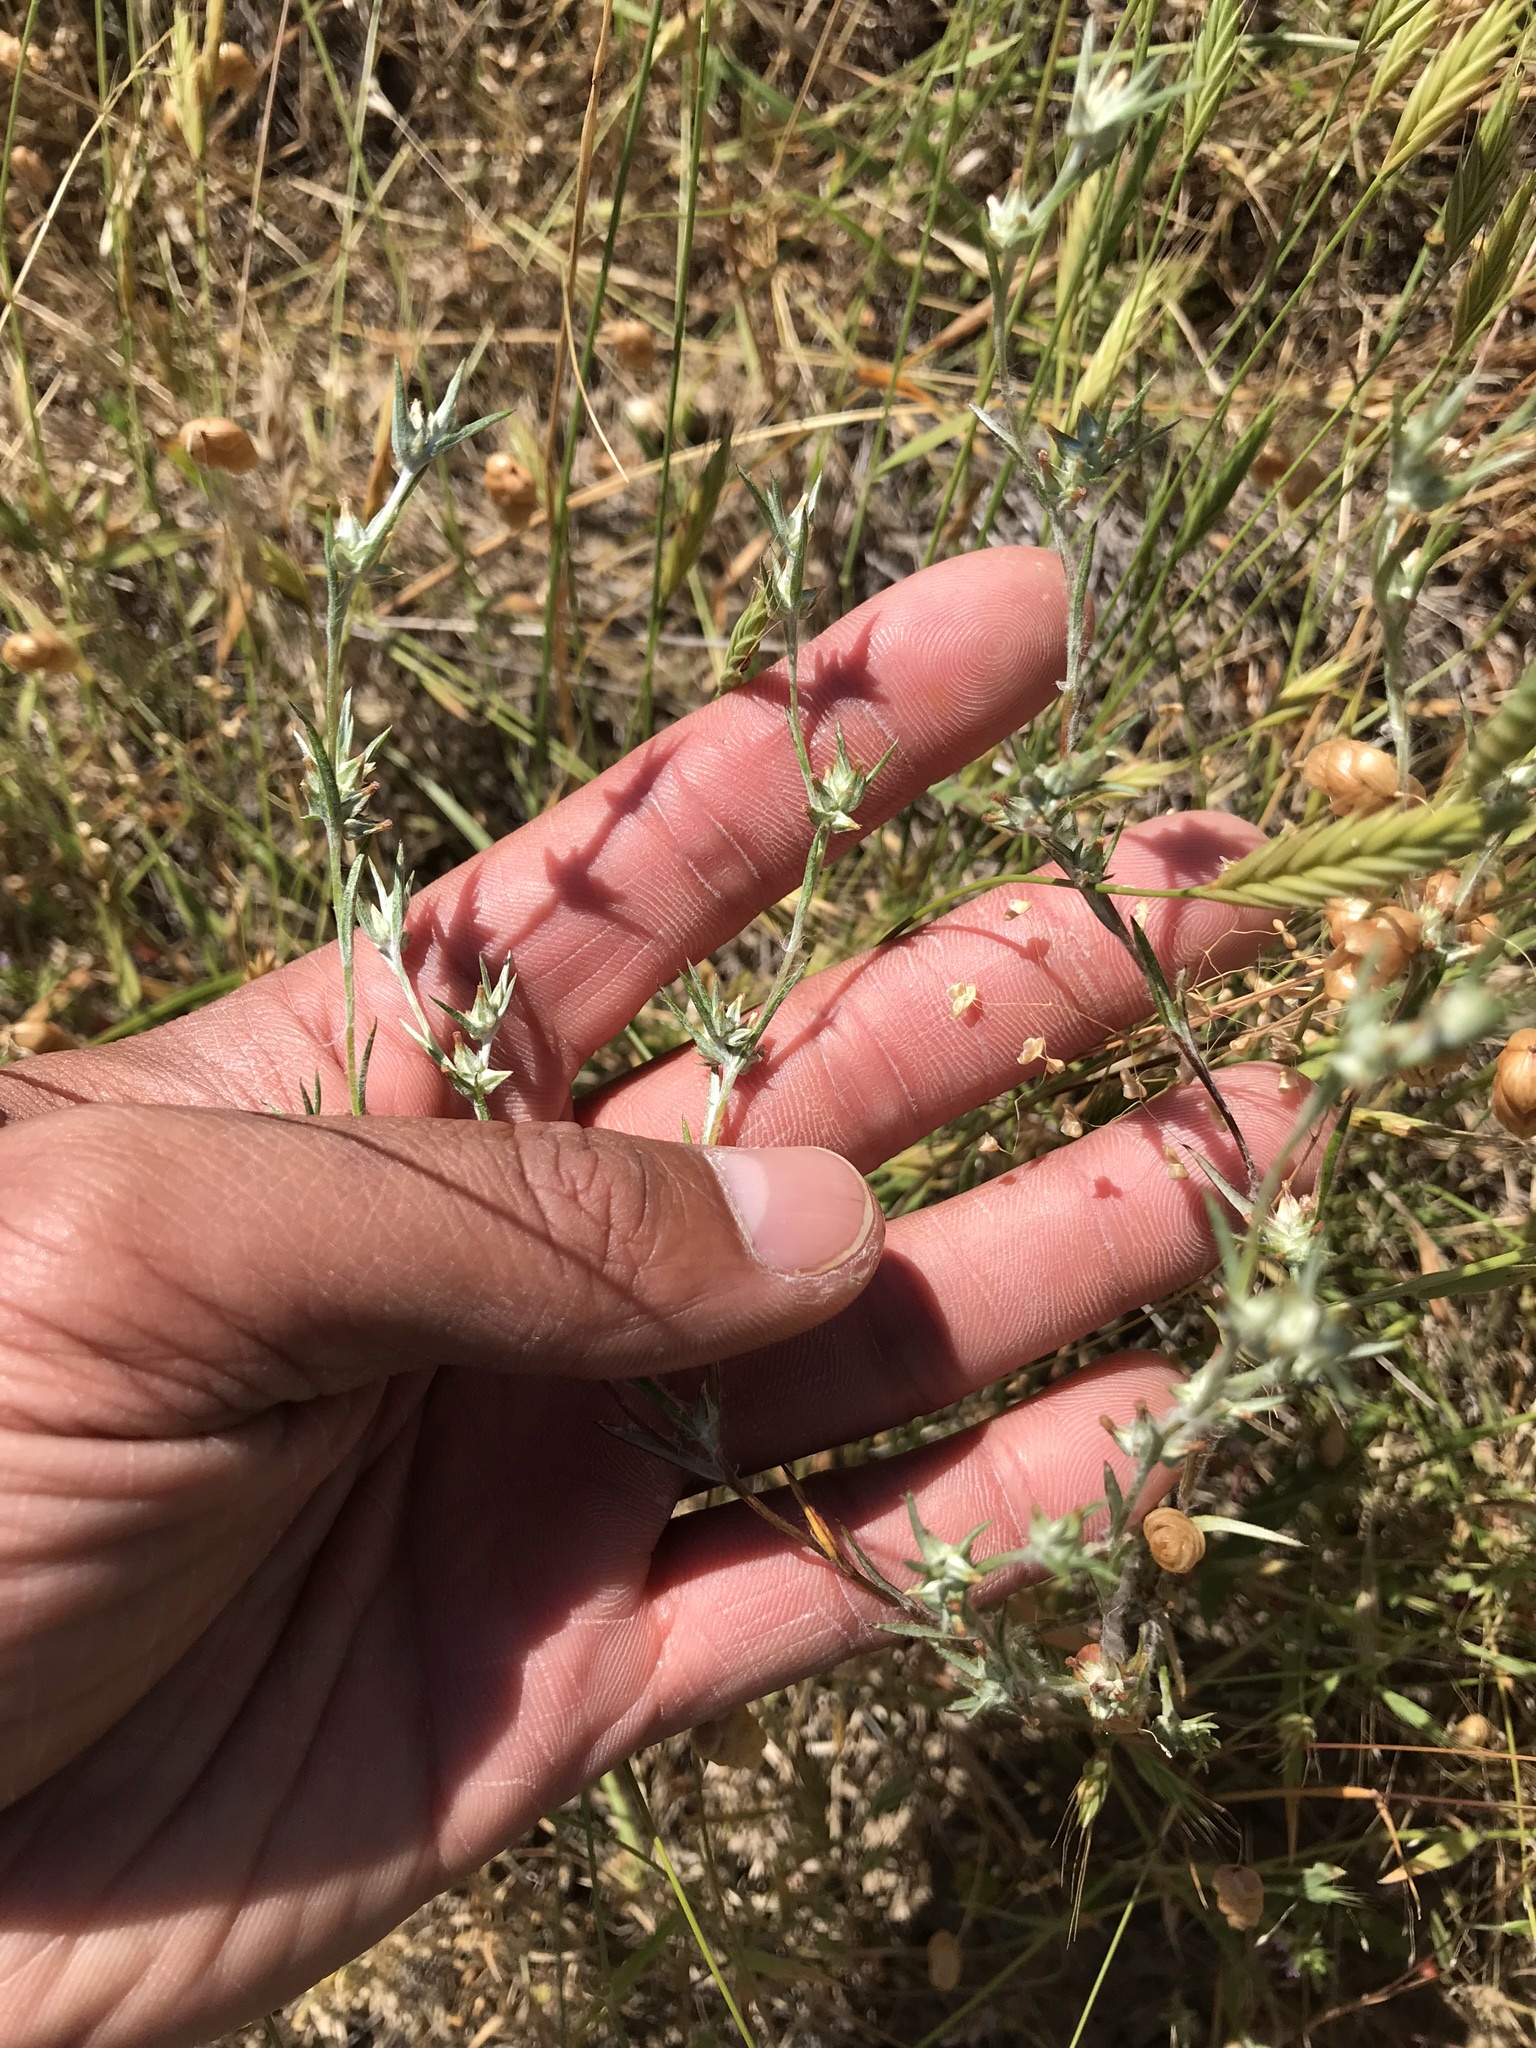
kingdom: Plantae
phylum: Tracheophyta
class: Magnoliopsida
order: Asterales
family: Asteraceae
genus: Logfia
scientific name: Logfia gallica
